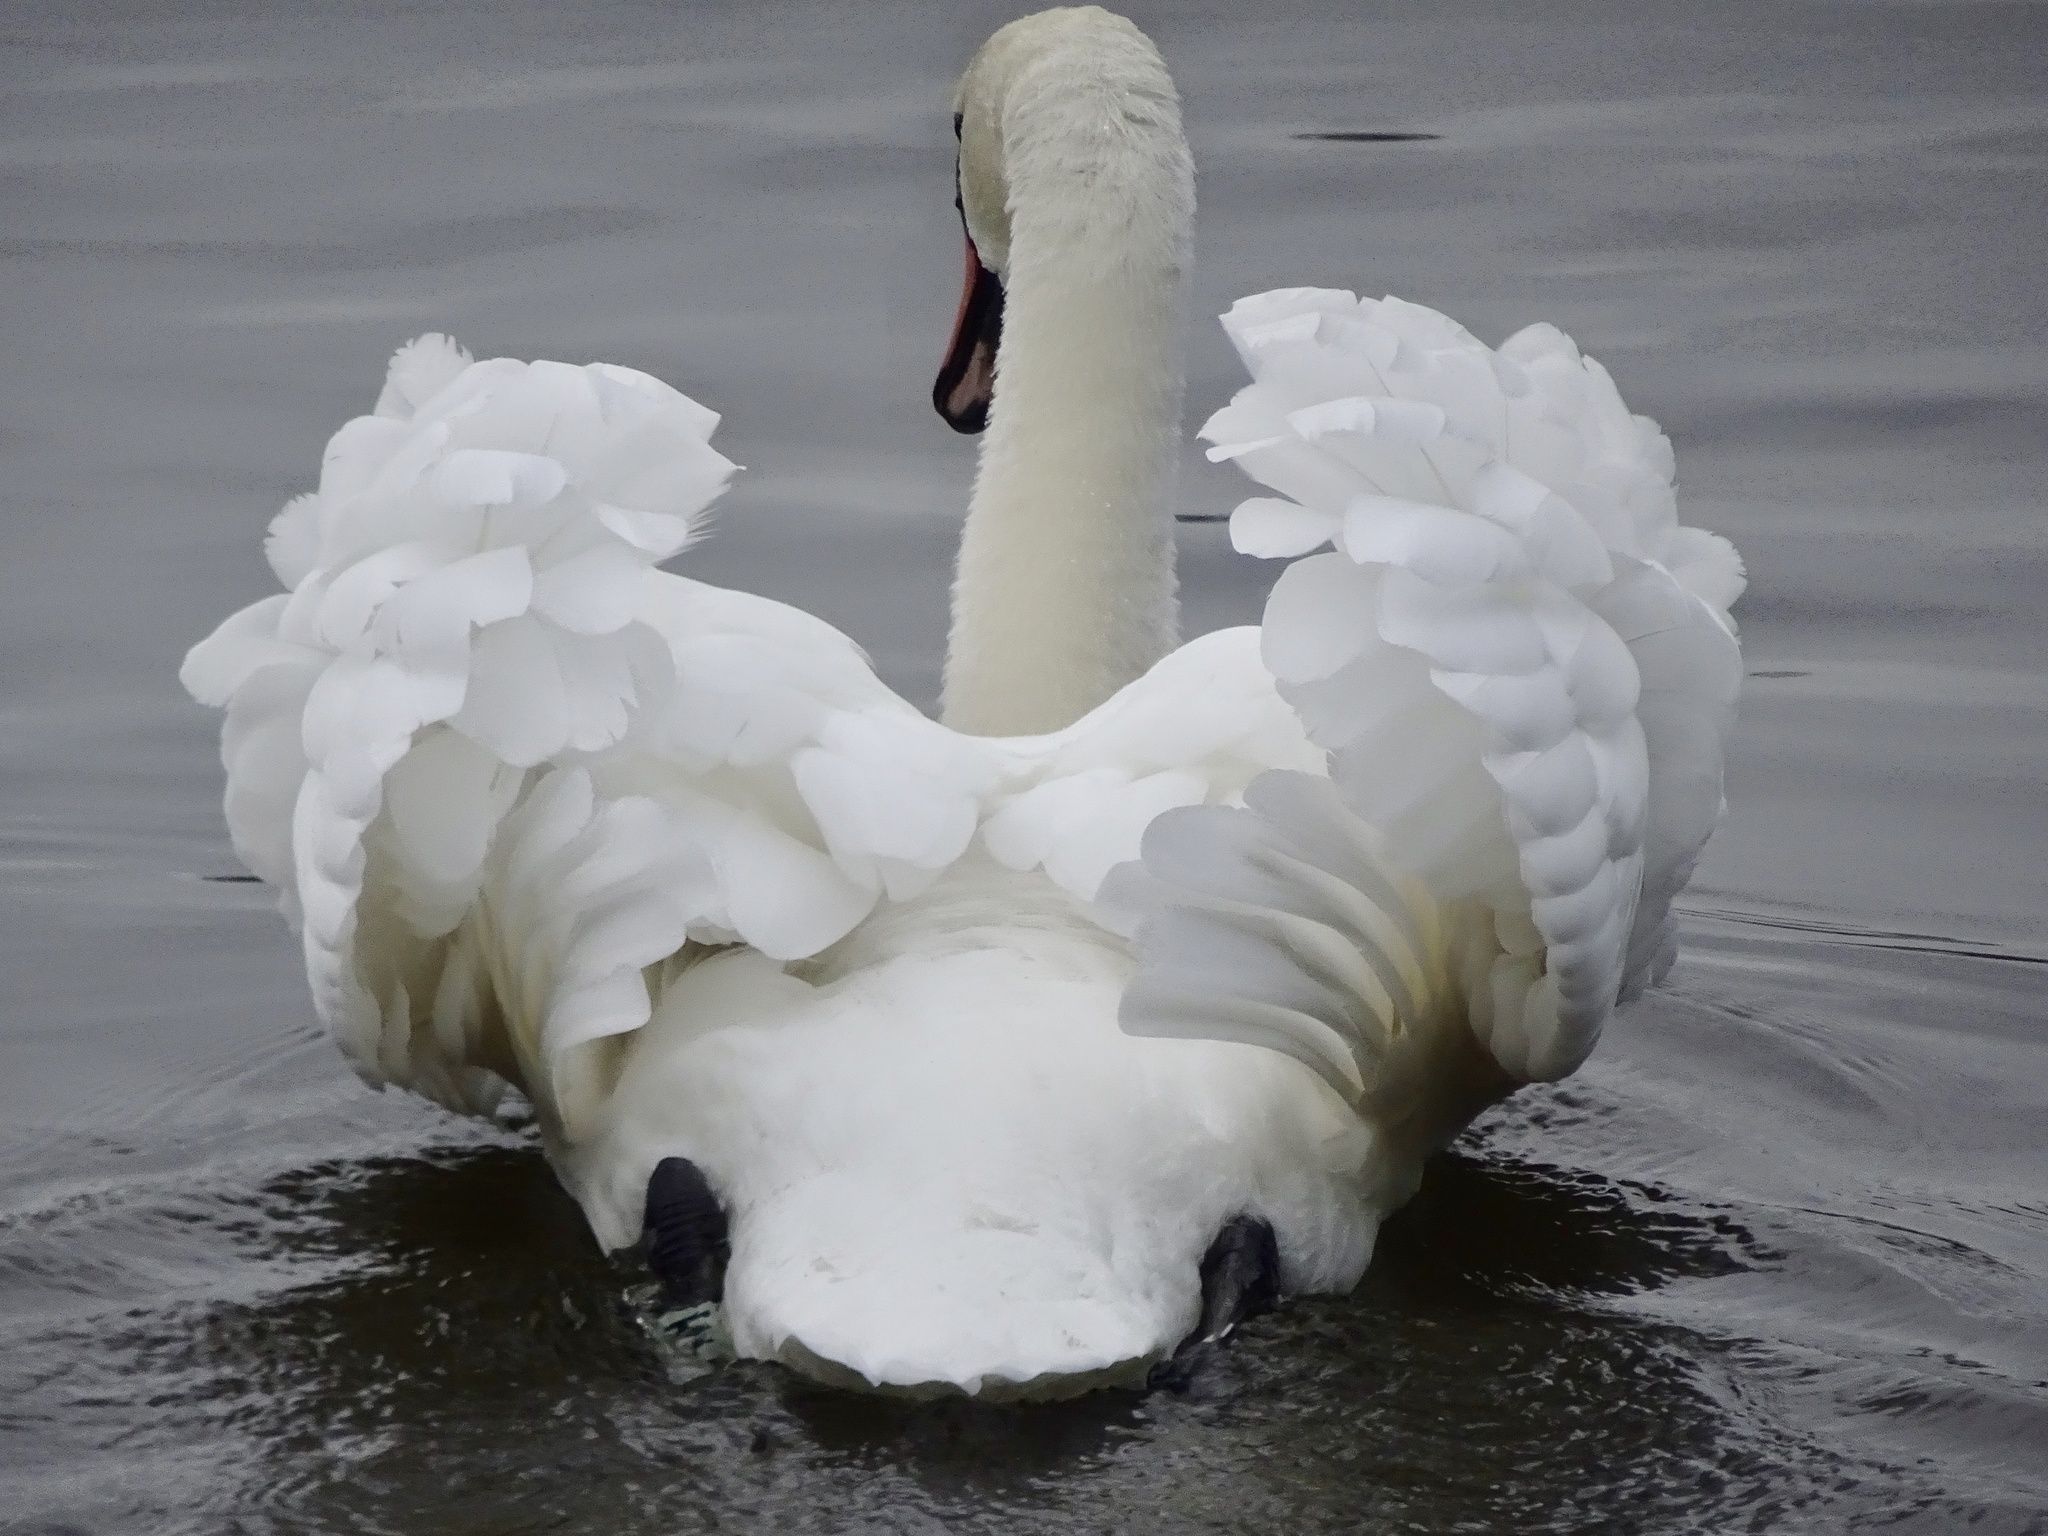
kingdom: Animalia
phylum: Chordata
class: Aves
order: Anseriformes
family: Anatidae
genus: Cygnus
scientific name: Cygnus olor
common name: Mute swan
